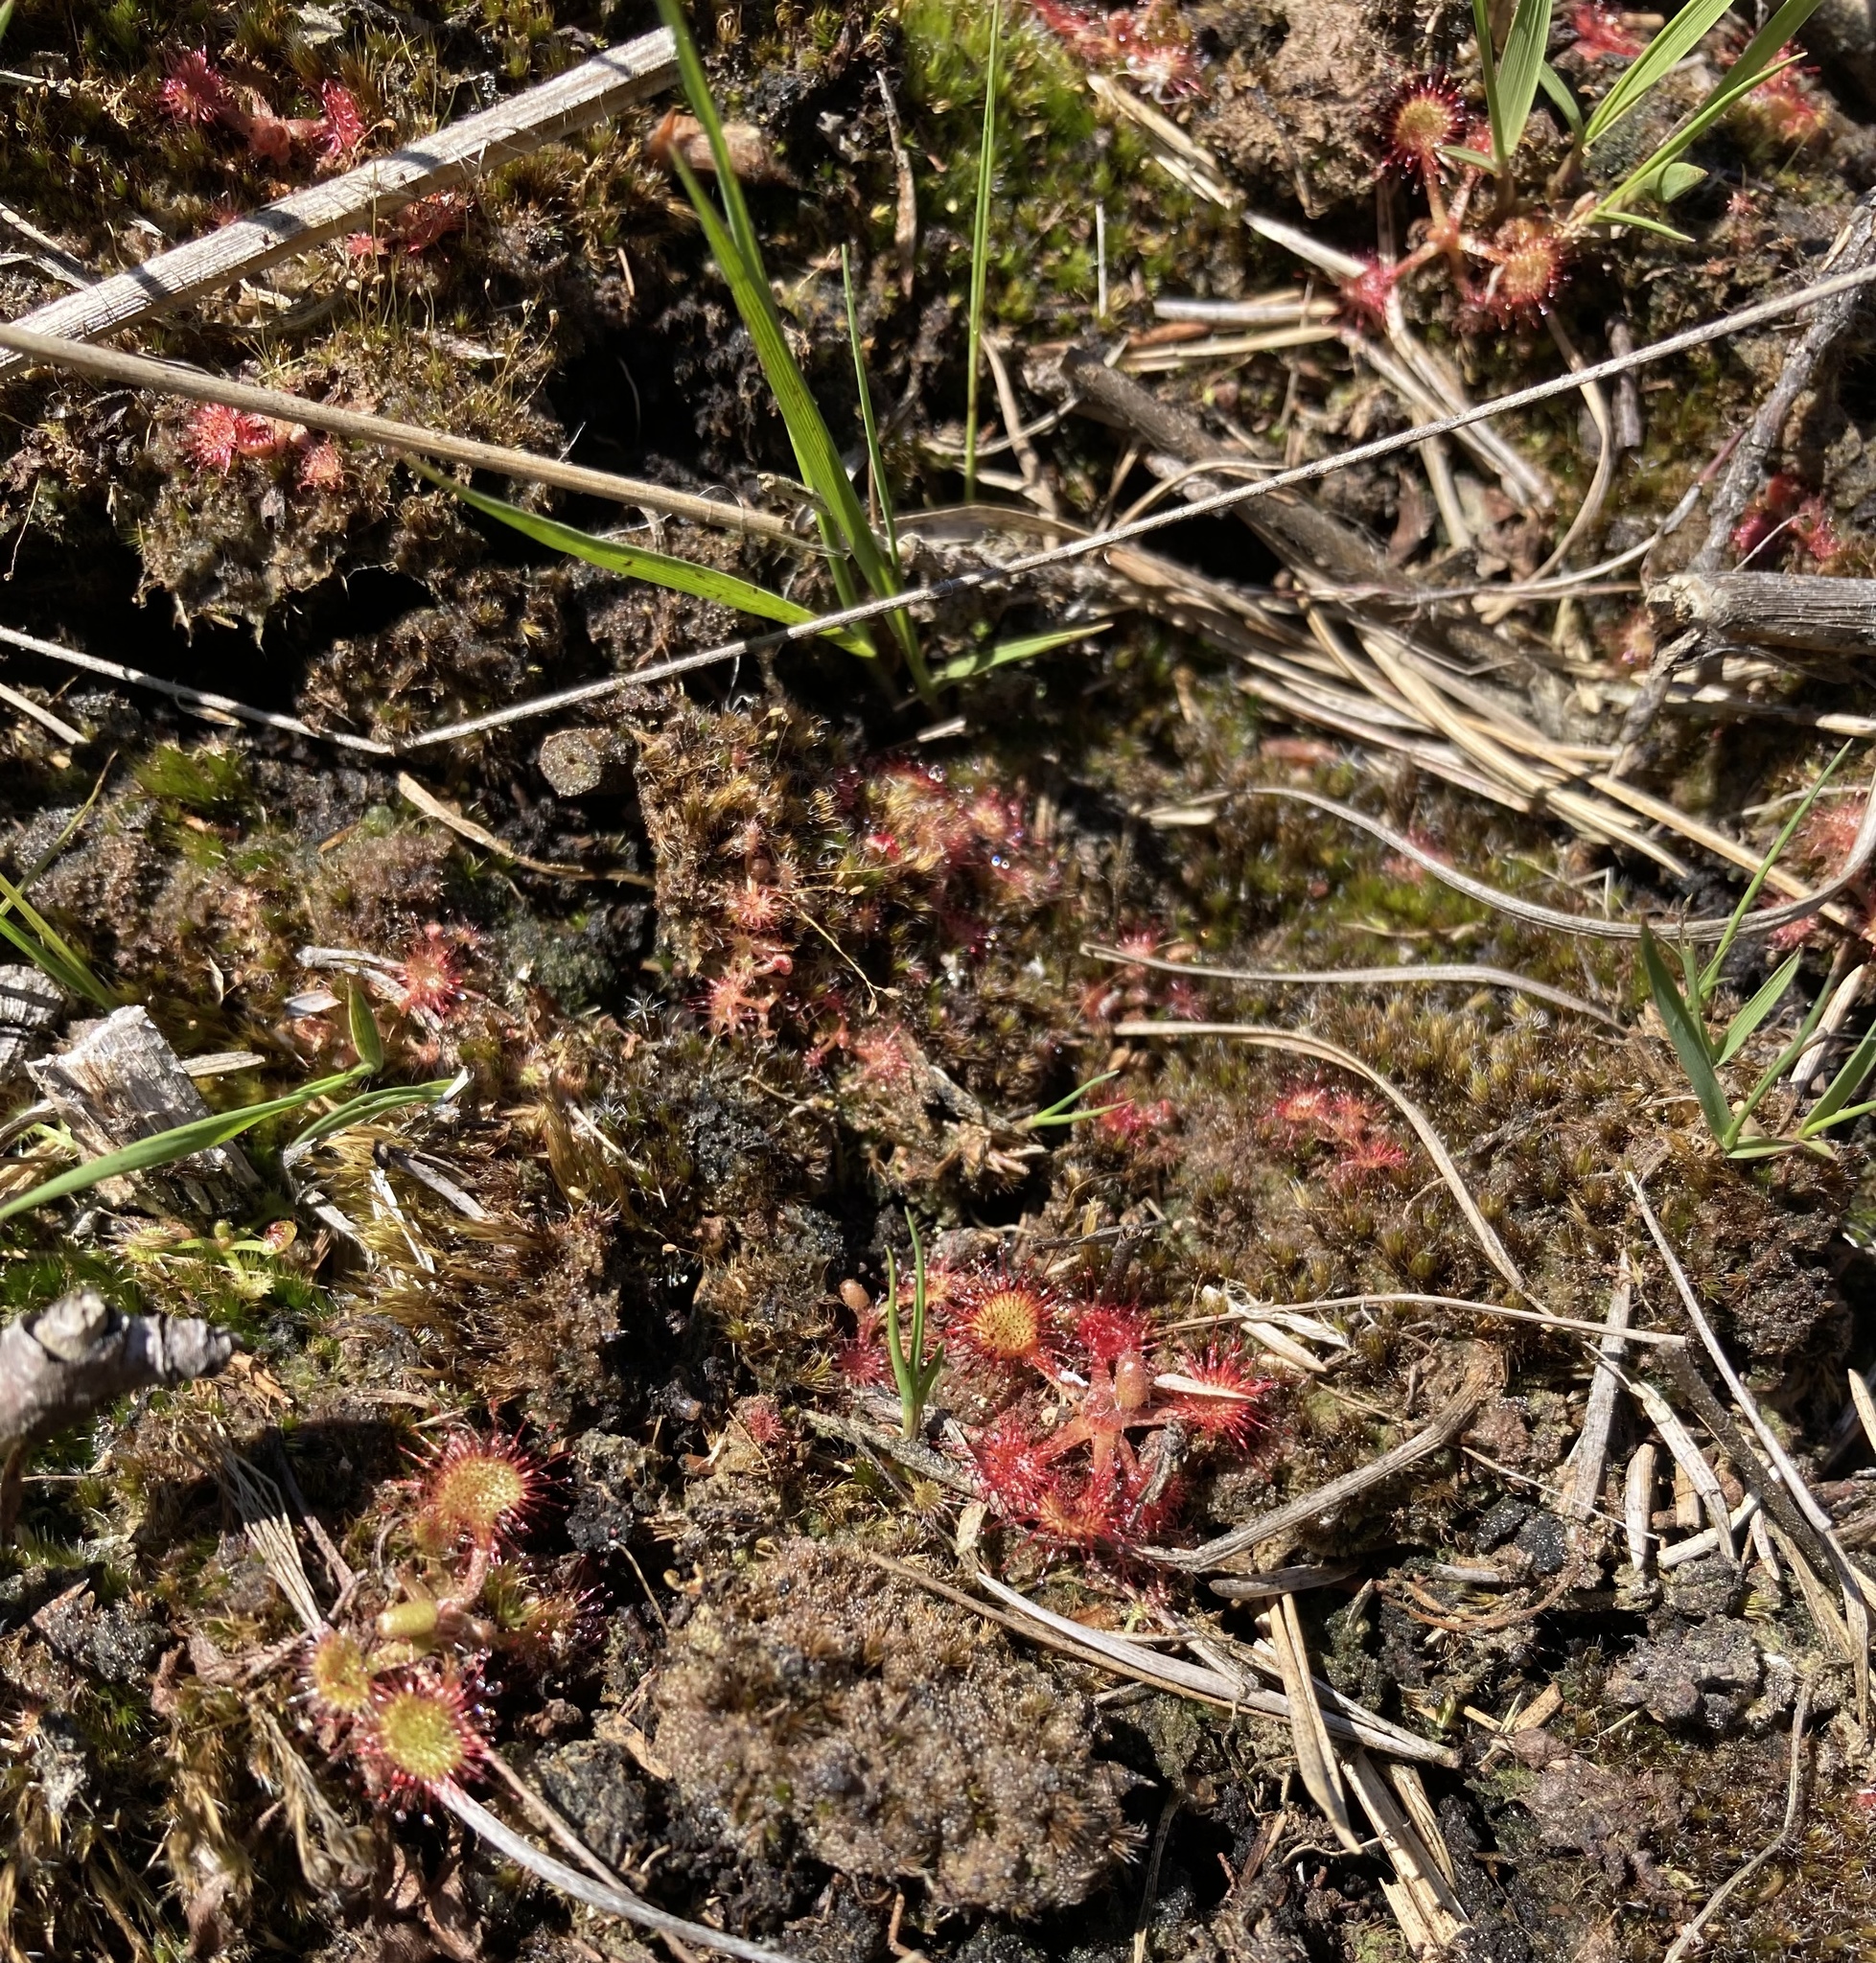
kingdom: Plantae
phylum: Tracheophyta
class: Magnoliopsida
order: Caryophyllales
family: Droseraceae
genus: Drosera
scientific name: Drosera rotundifolia
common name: Round-leaved sundew
